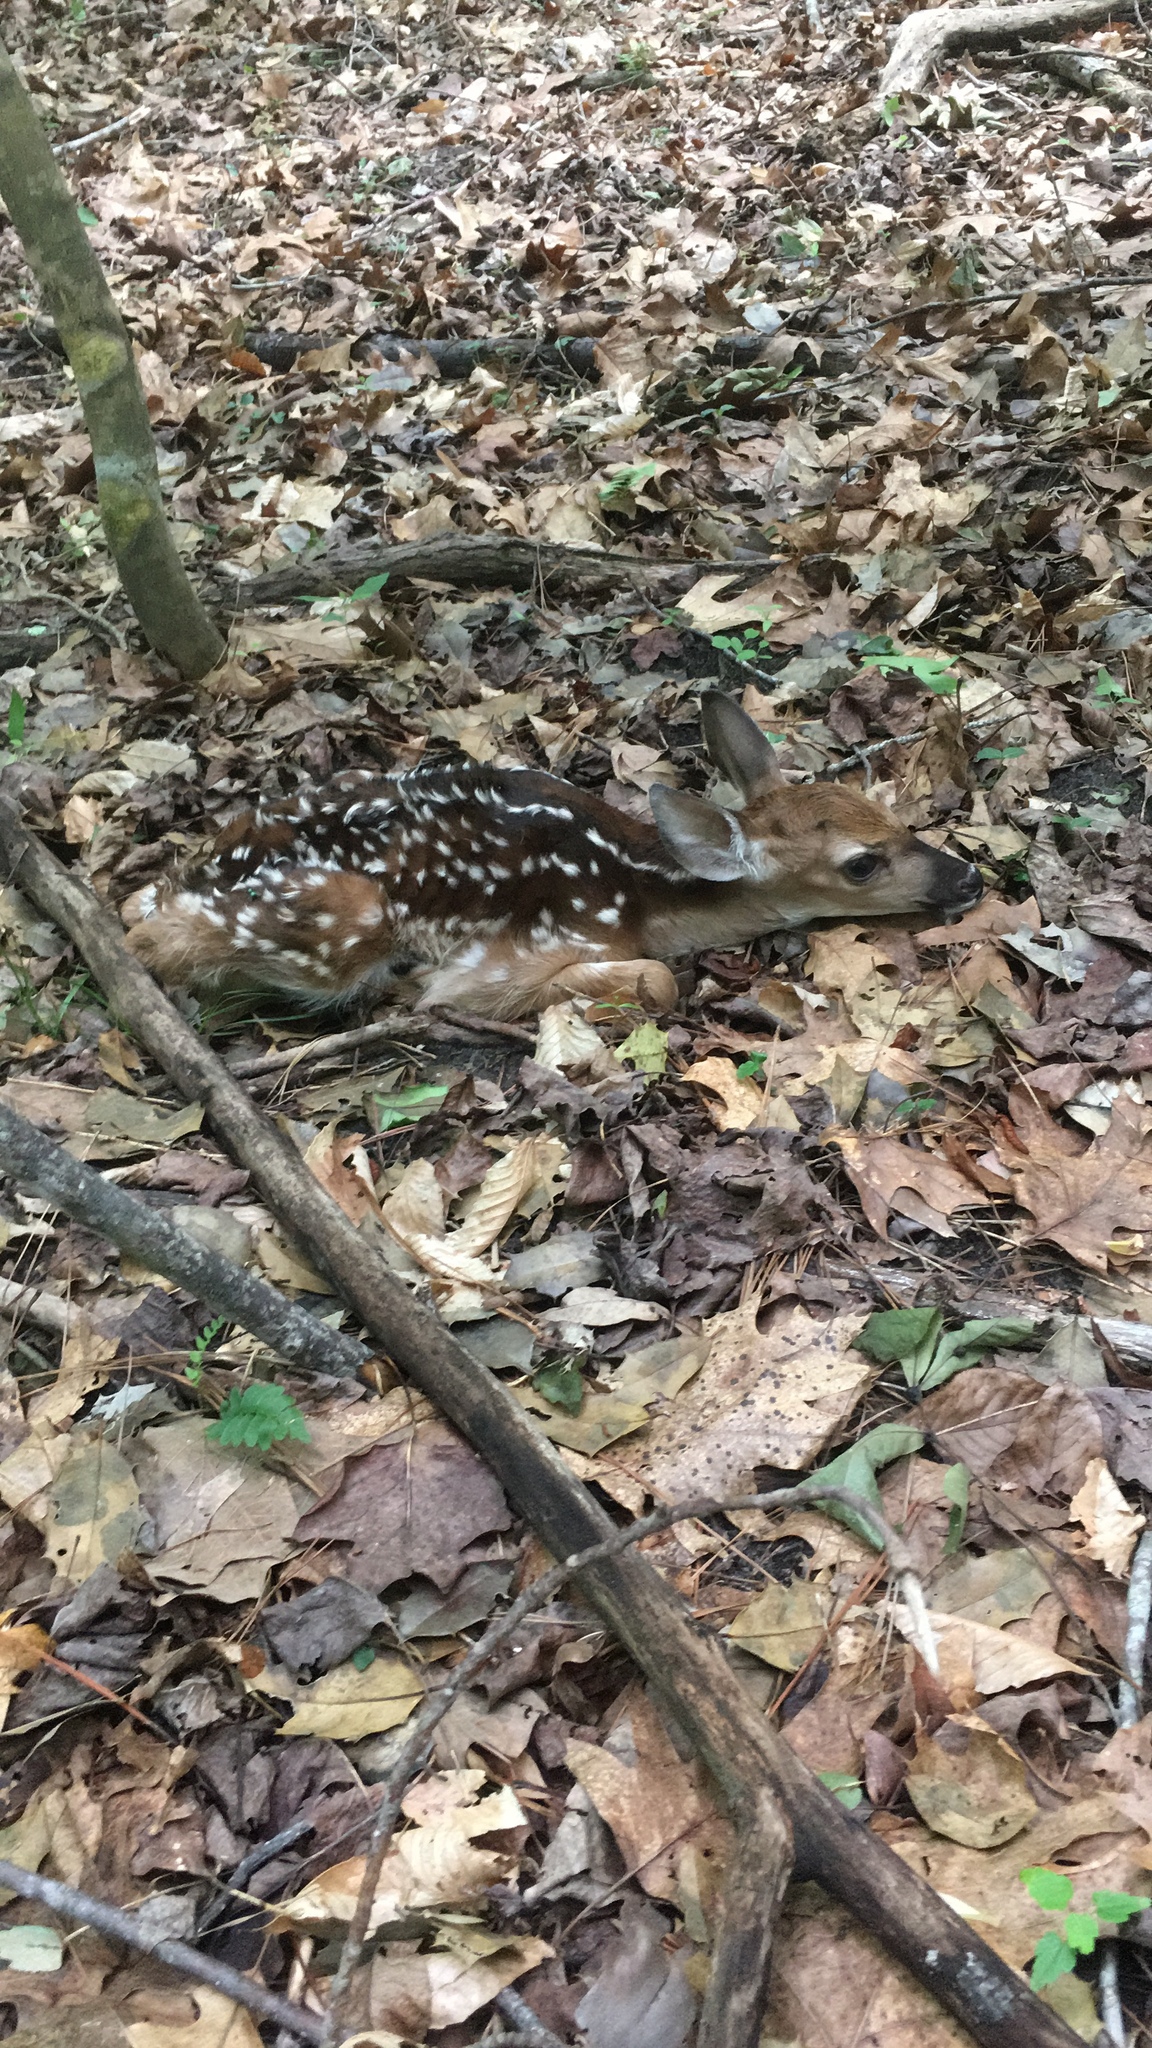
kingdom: Animalia
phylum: Chordata
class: Mammalia
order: Artiodactyla
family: Cervidae
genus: Odocoileus
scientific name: Odocoileus virginianus
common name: White-tailed deer
